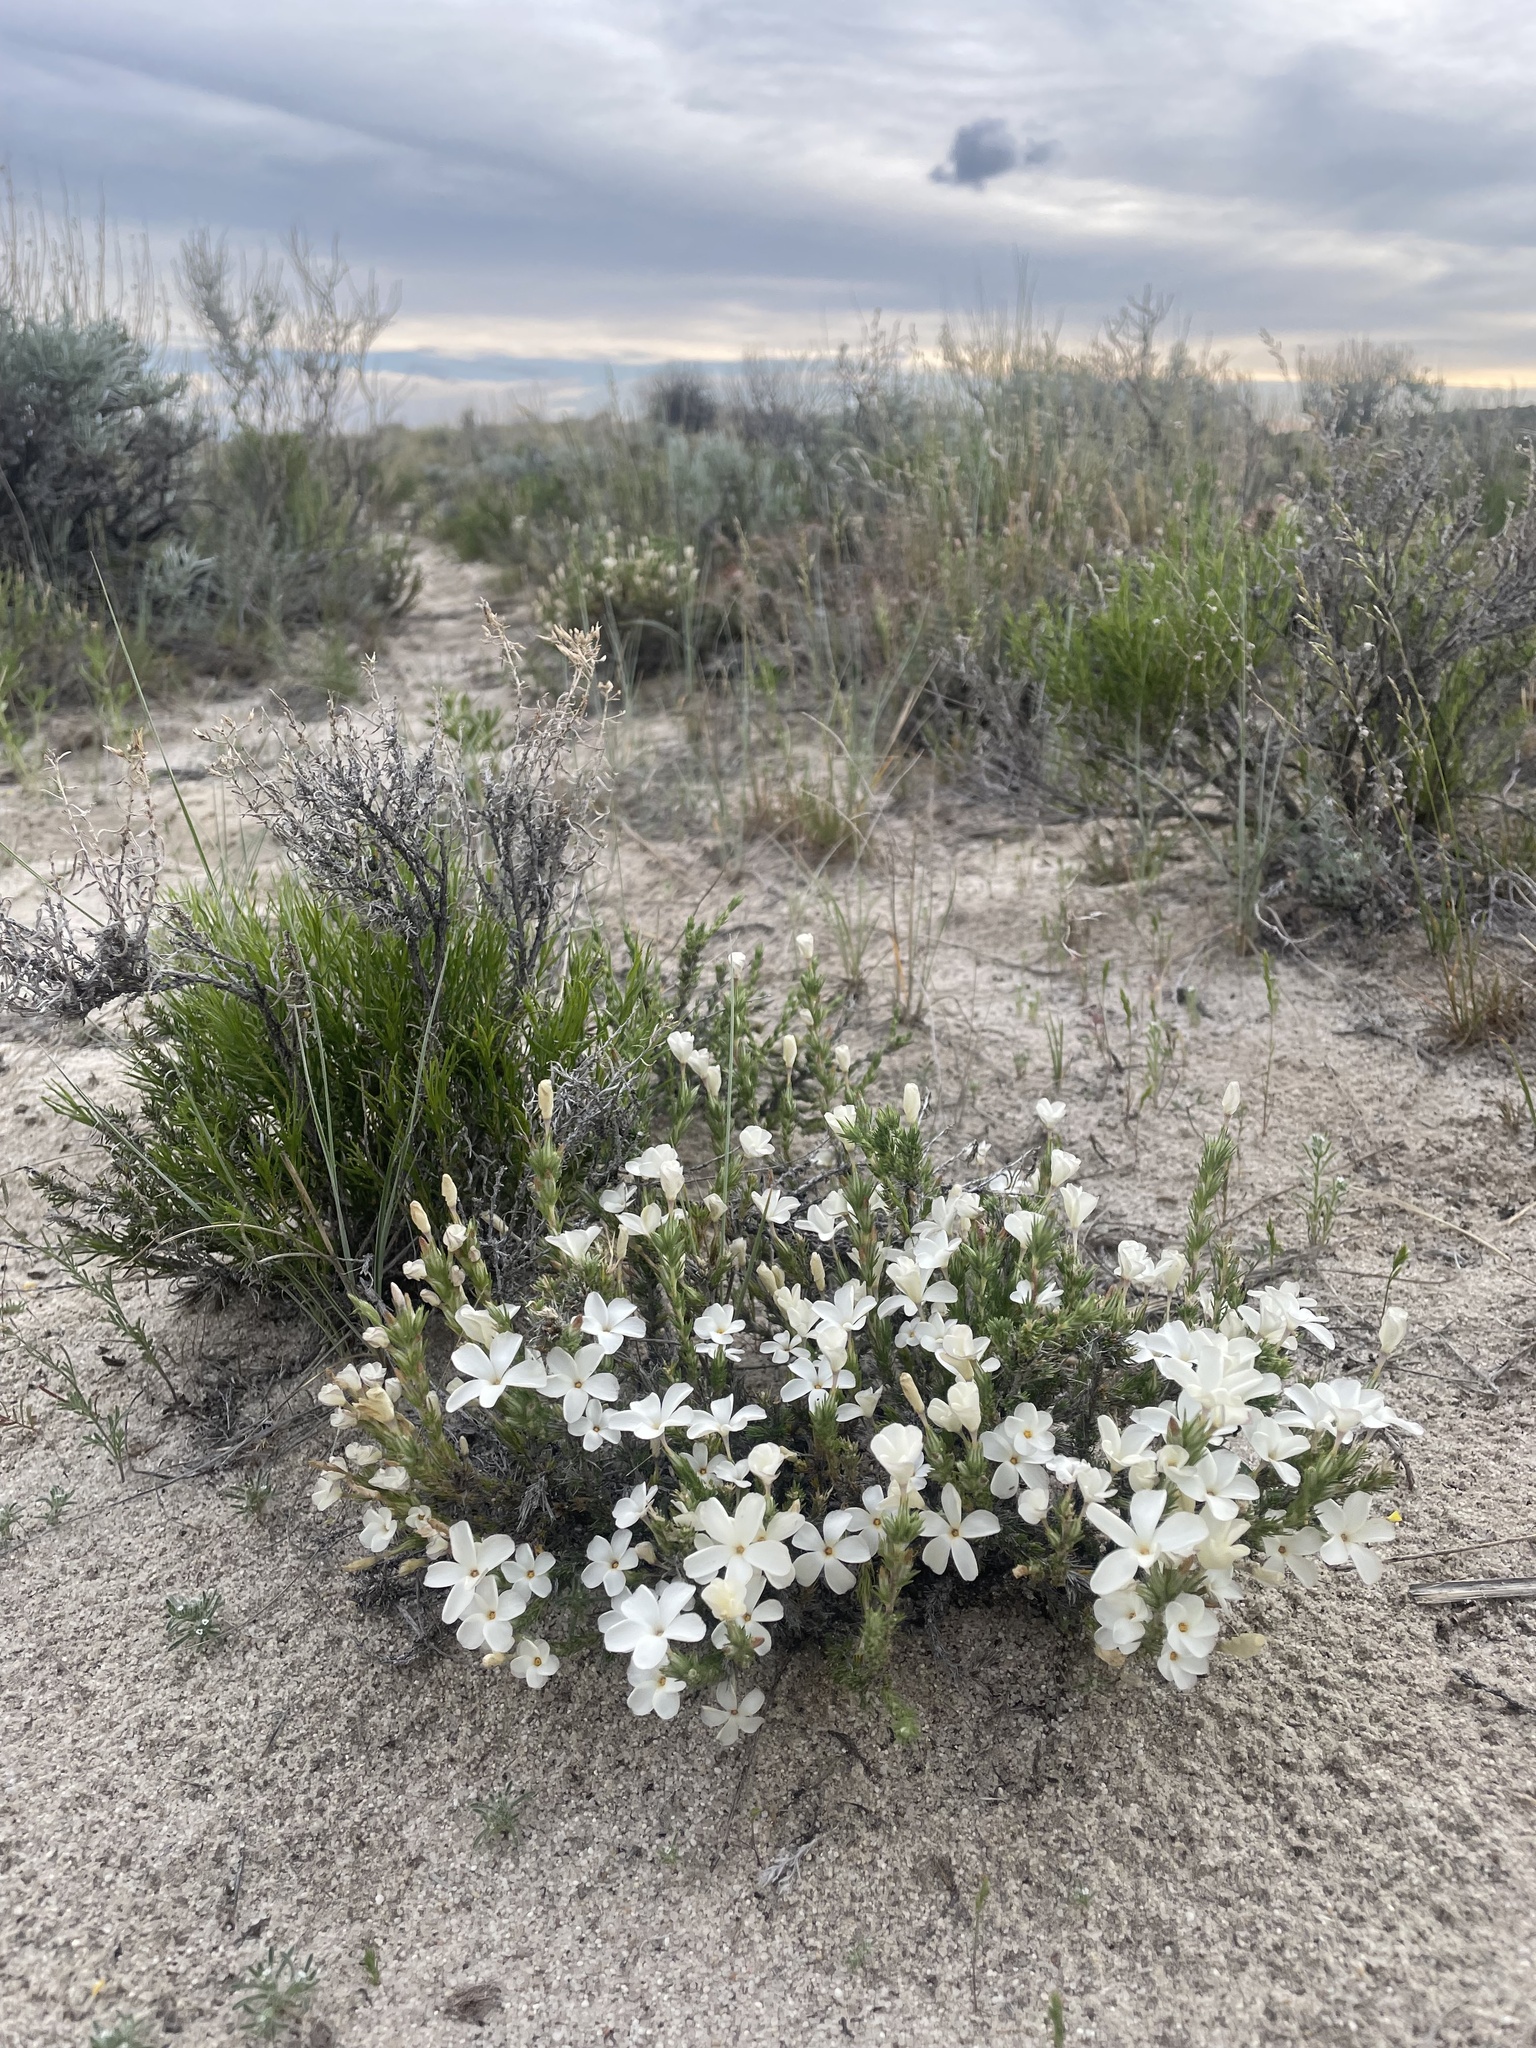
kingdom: Plantae
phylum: Tracheophyta
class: Magnoliopsida
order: Ericales
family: Polemoniaceae
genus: Linanthus
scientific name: Linanthus pungens
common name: Granite prickly phlox
